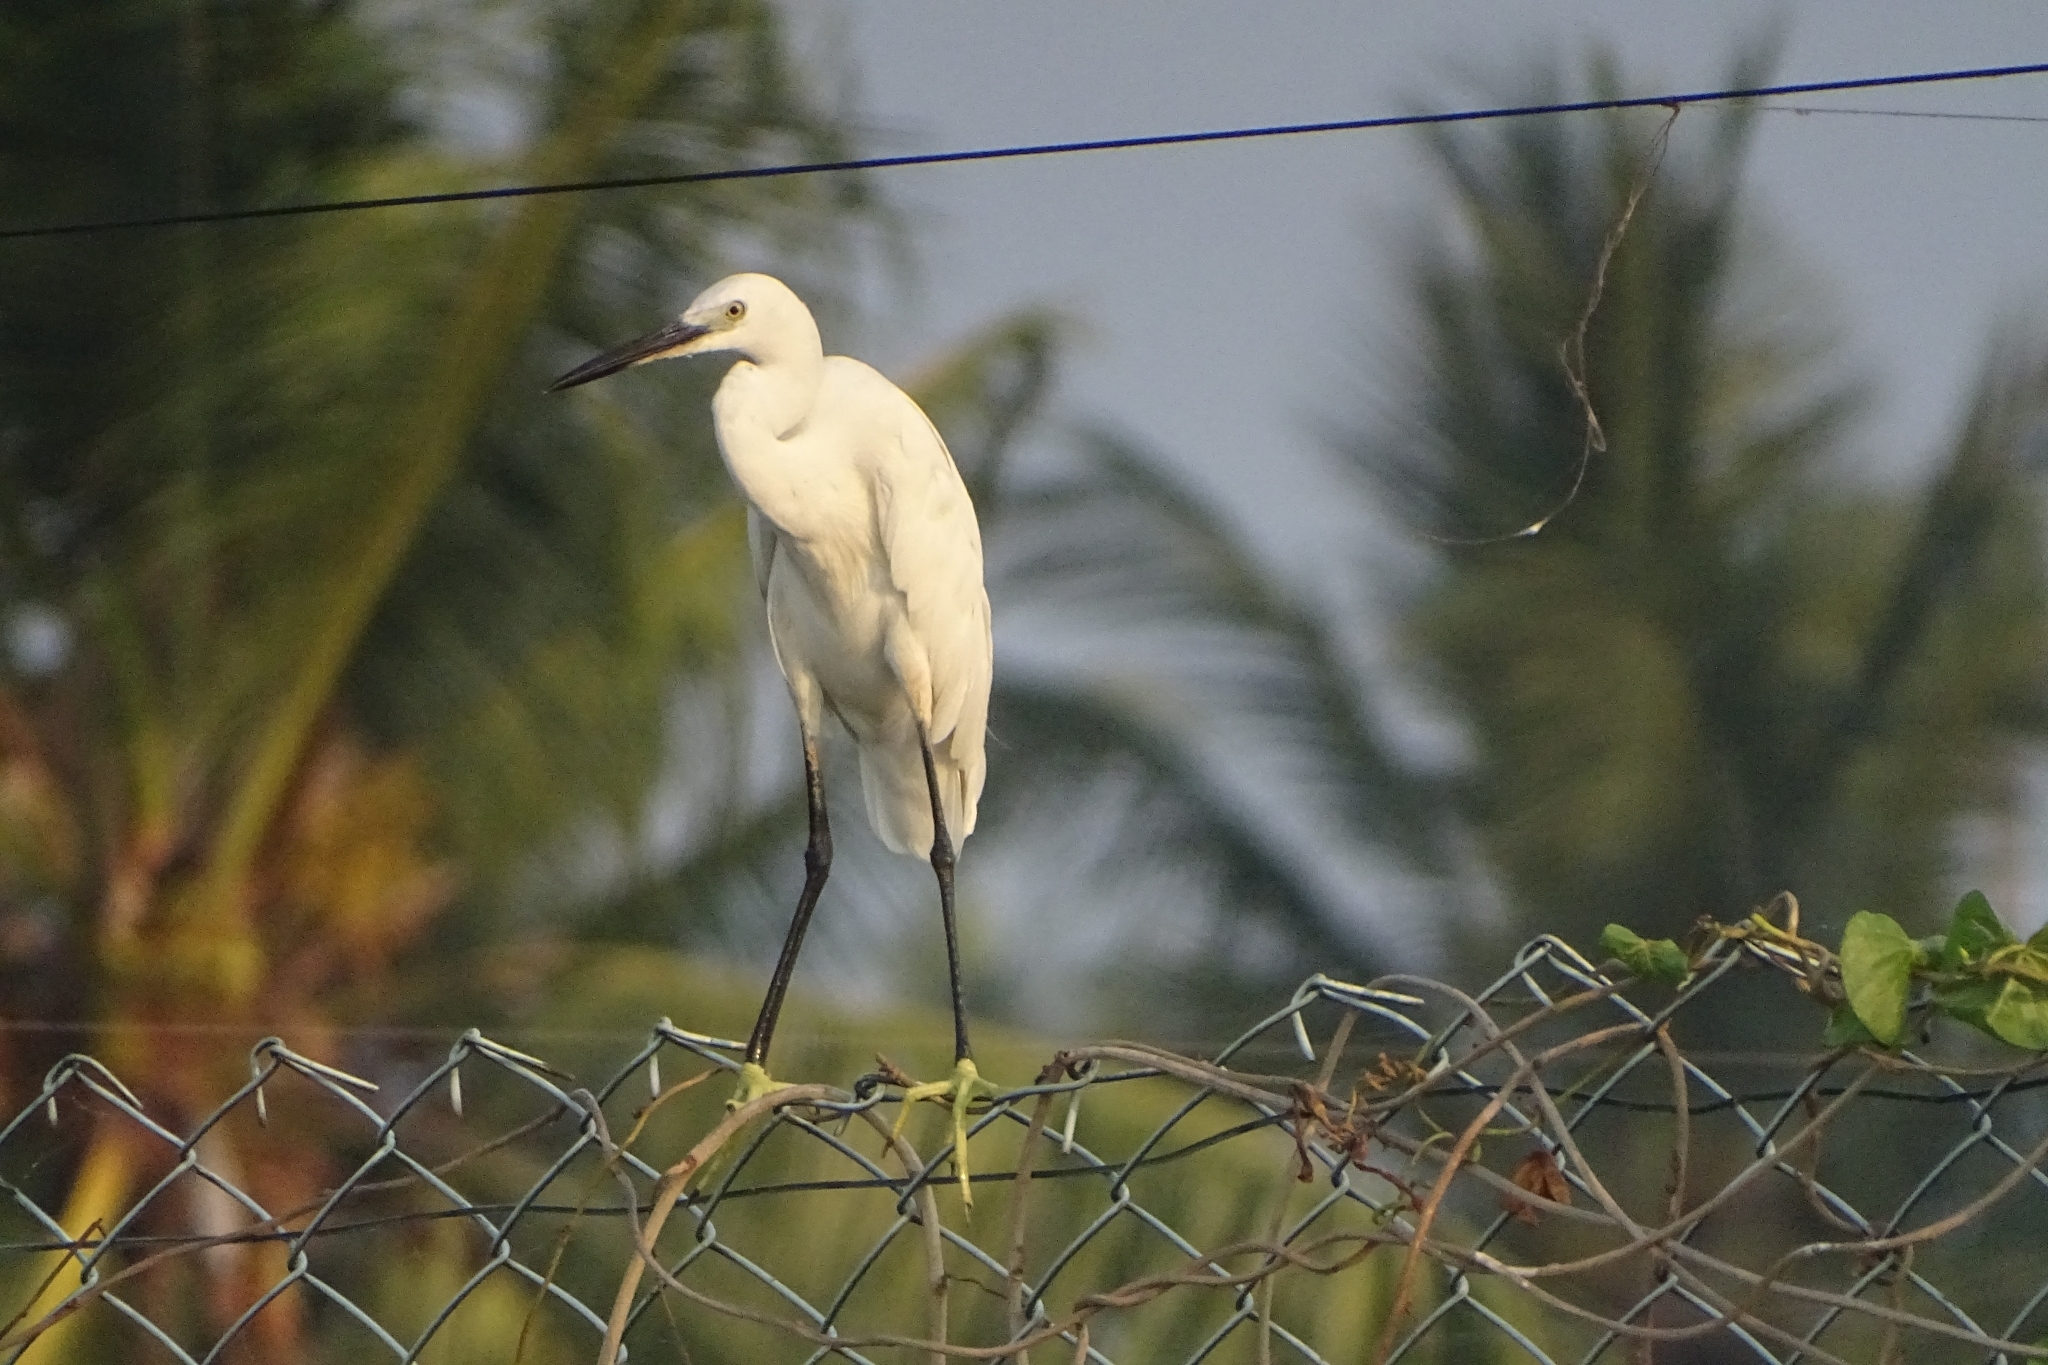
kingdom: Animalia
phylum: Chordata
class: Aves
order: Pelecaniformes
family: Ardeidae
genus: Egretta
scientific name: Egretta garzetta
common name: Little egret
